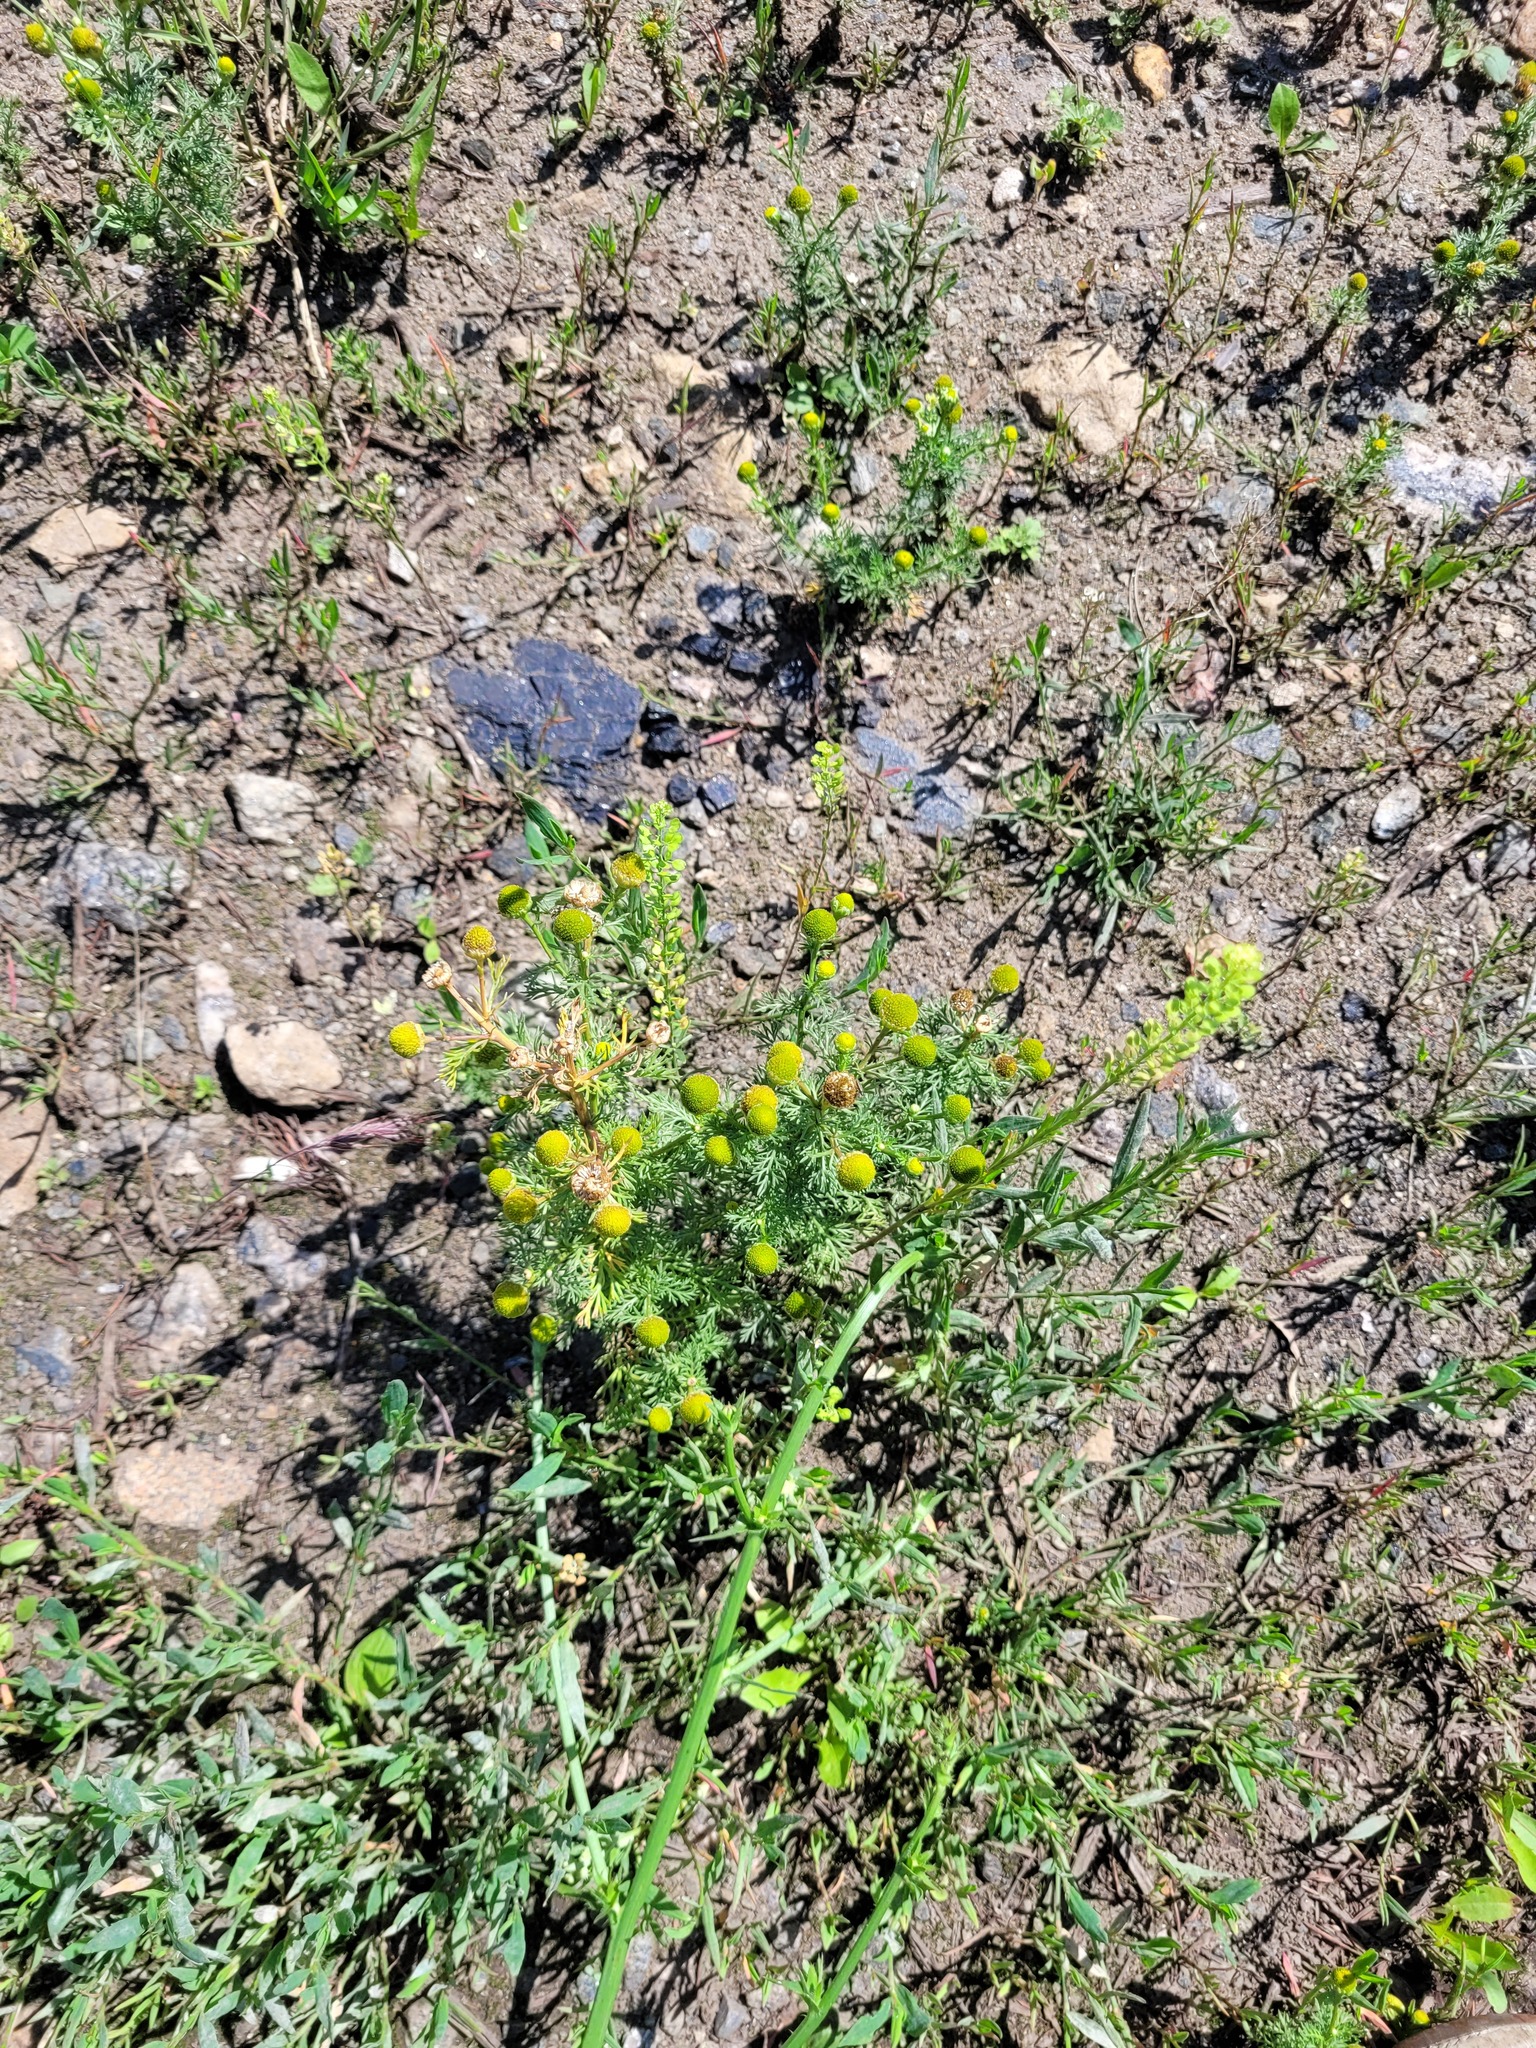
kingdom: Plantae
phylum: Tracheophyta
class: Magnoliopsida
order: Asterales
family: Asteraceae
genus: Matricaria
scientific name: Matricaria discoidea
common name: Disc mayweed
